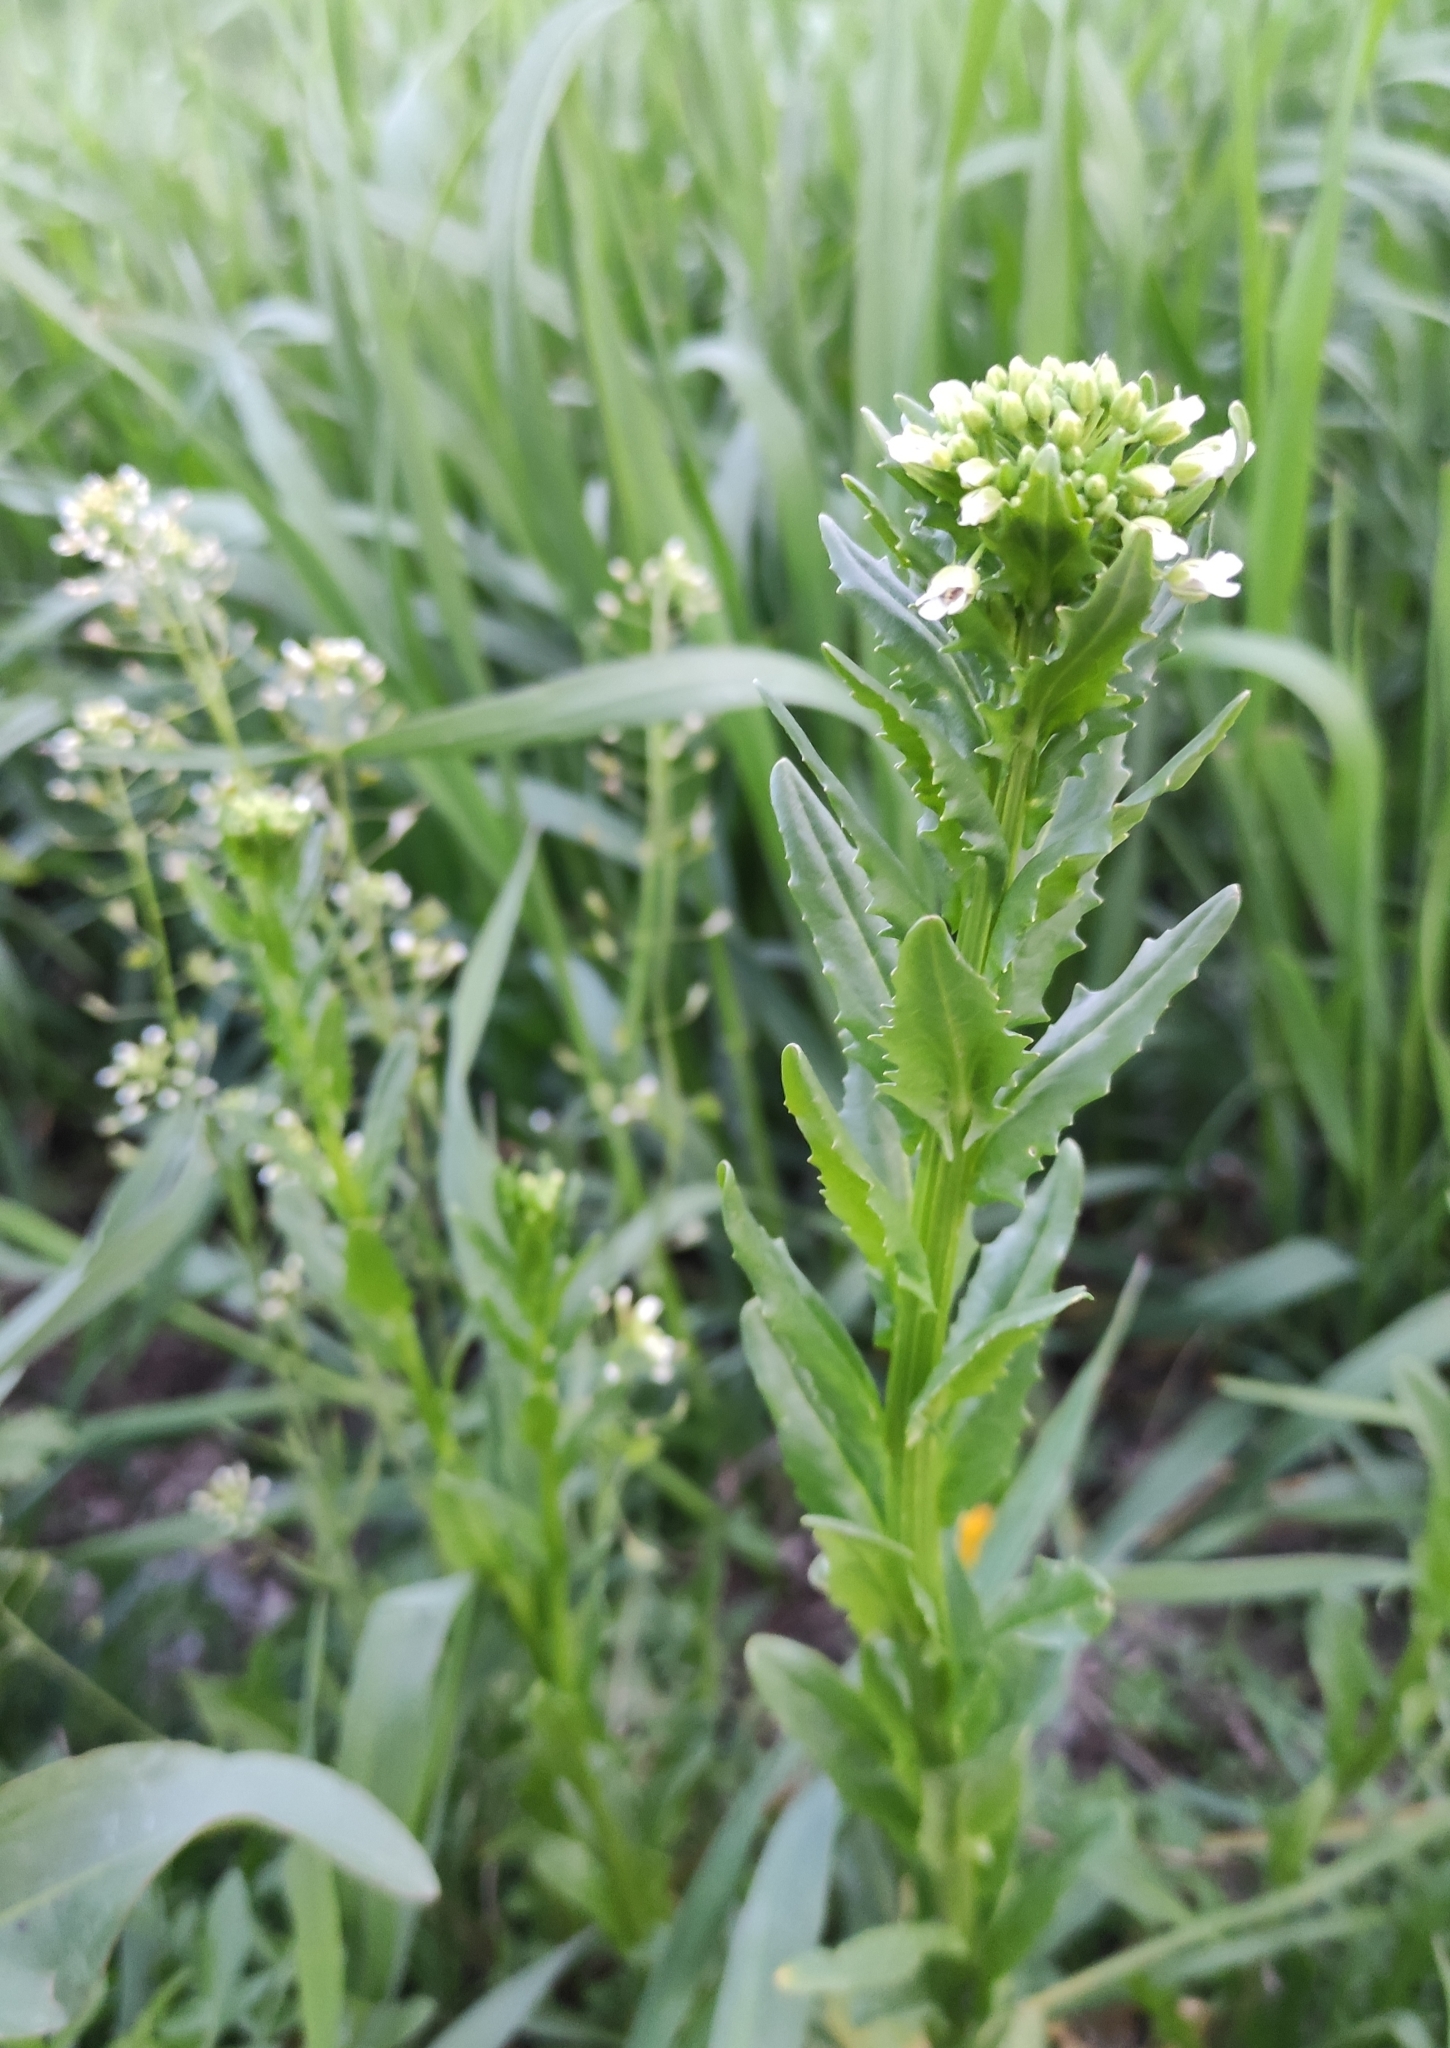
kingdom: Plantae
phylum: Tracheophyta
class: Magnoliopsida
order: Brassicales
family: Brassicaceae
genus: Thlaspi
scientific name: Thlaspi arvense
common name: Field pennycress
